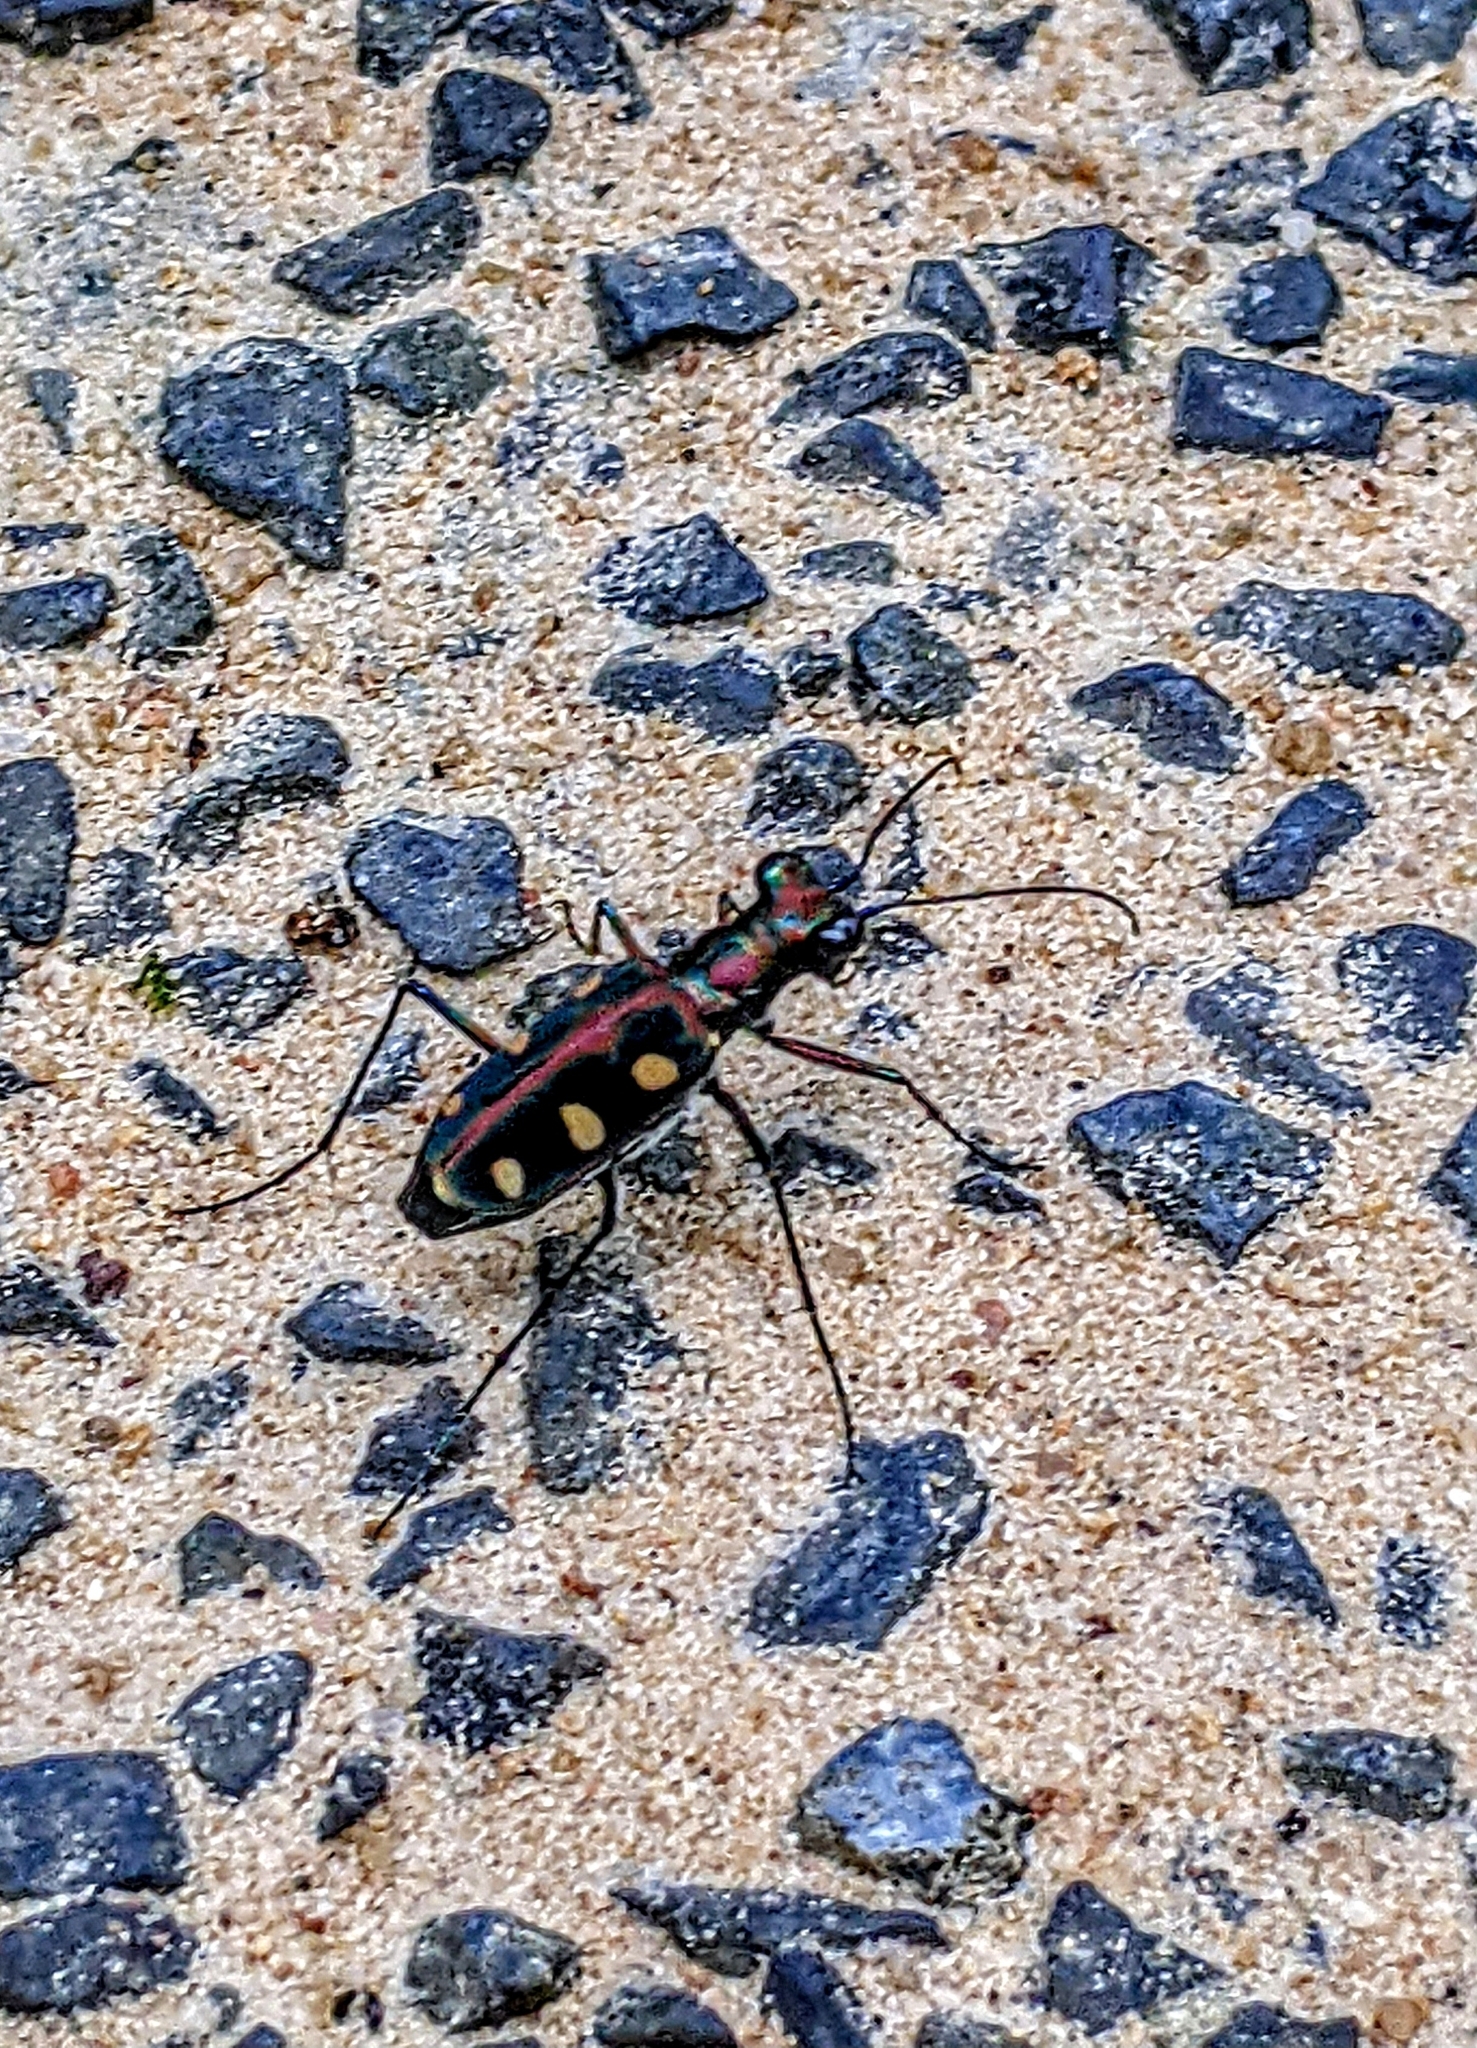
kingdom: Animalia
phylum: Arthropoda
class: Insecta
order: Coleoptera
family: Carabidae
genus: Cicindela
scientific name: Cicindela aurulenta
